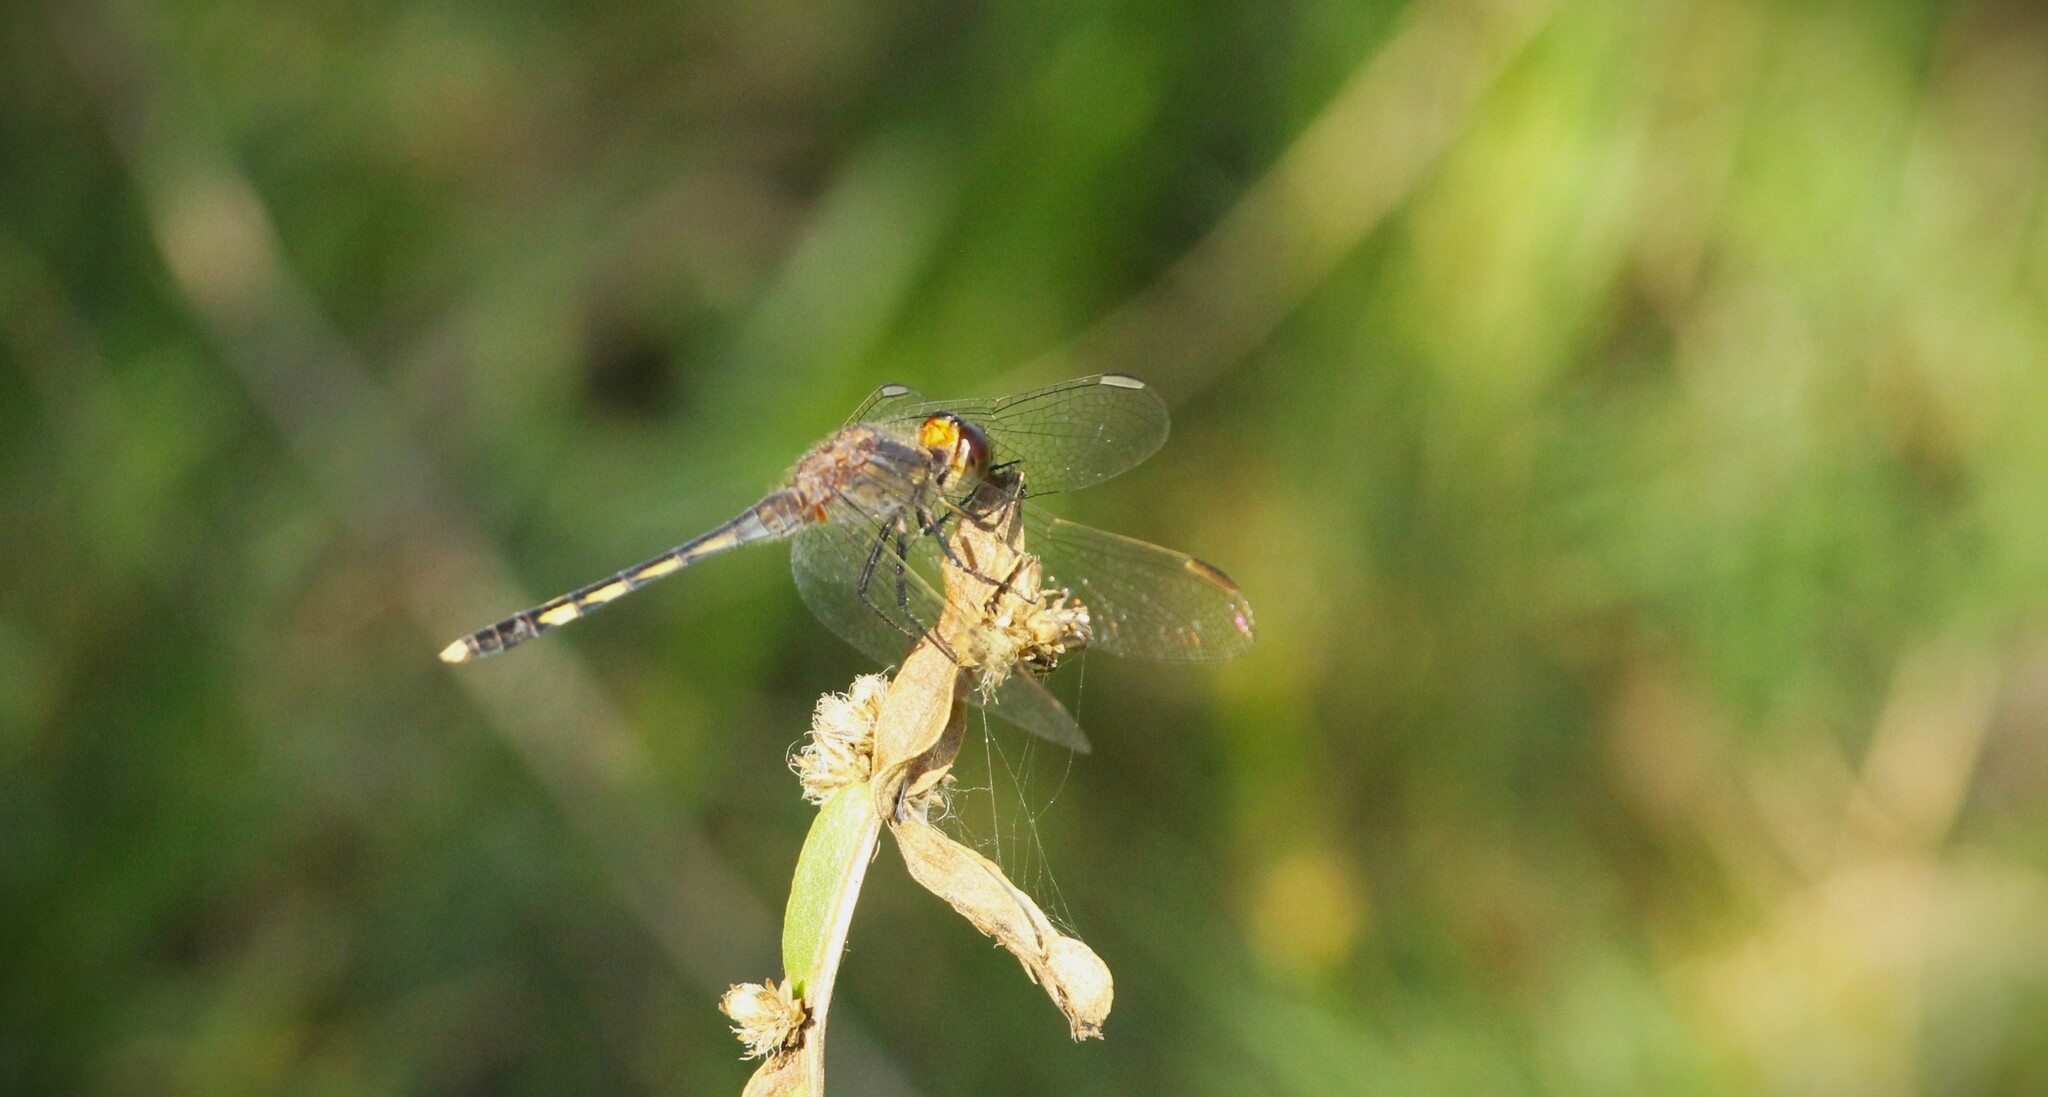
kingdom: Animalia
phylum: Arthropoda
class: Insecta
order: Odonata
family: Libellulidae
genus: Erythrodiplax
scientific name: Erythrodiplax nigricans
